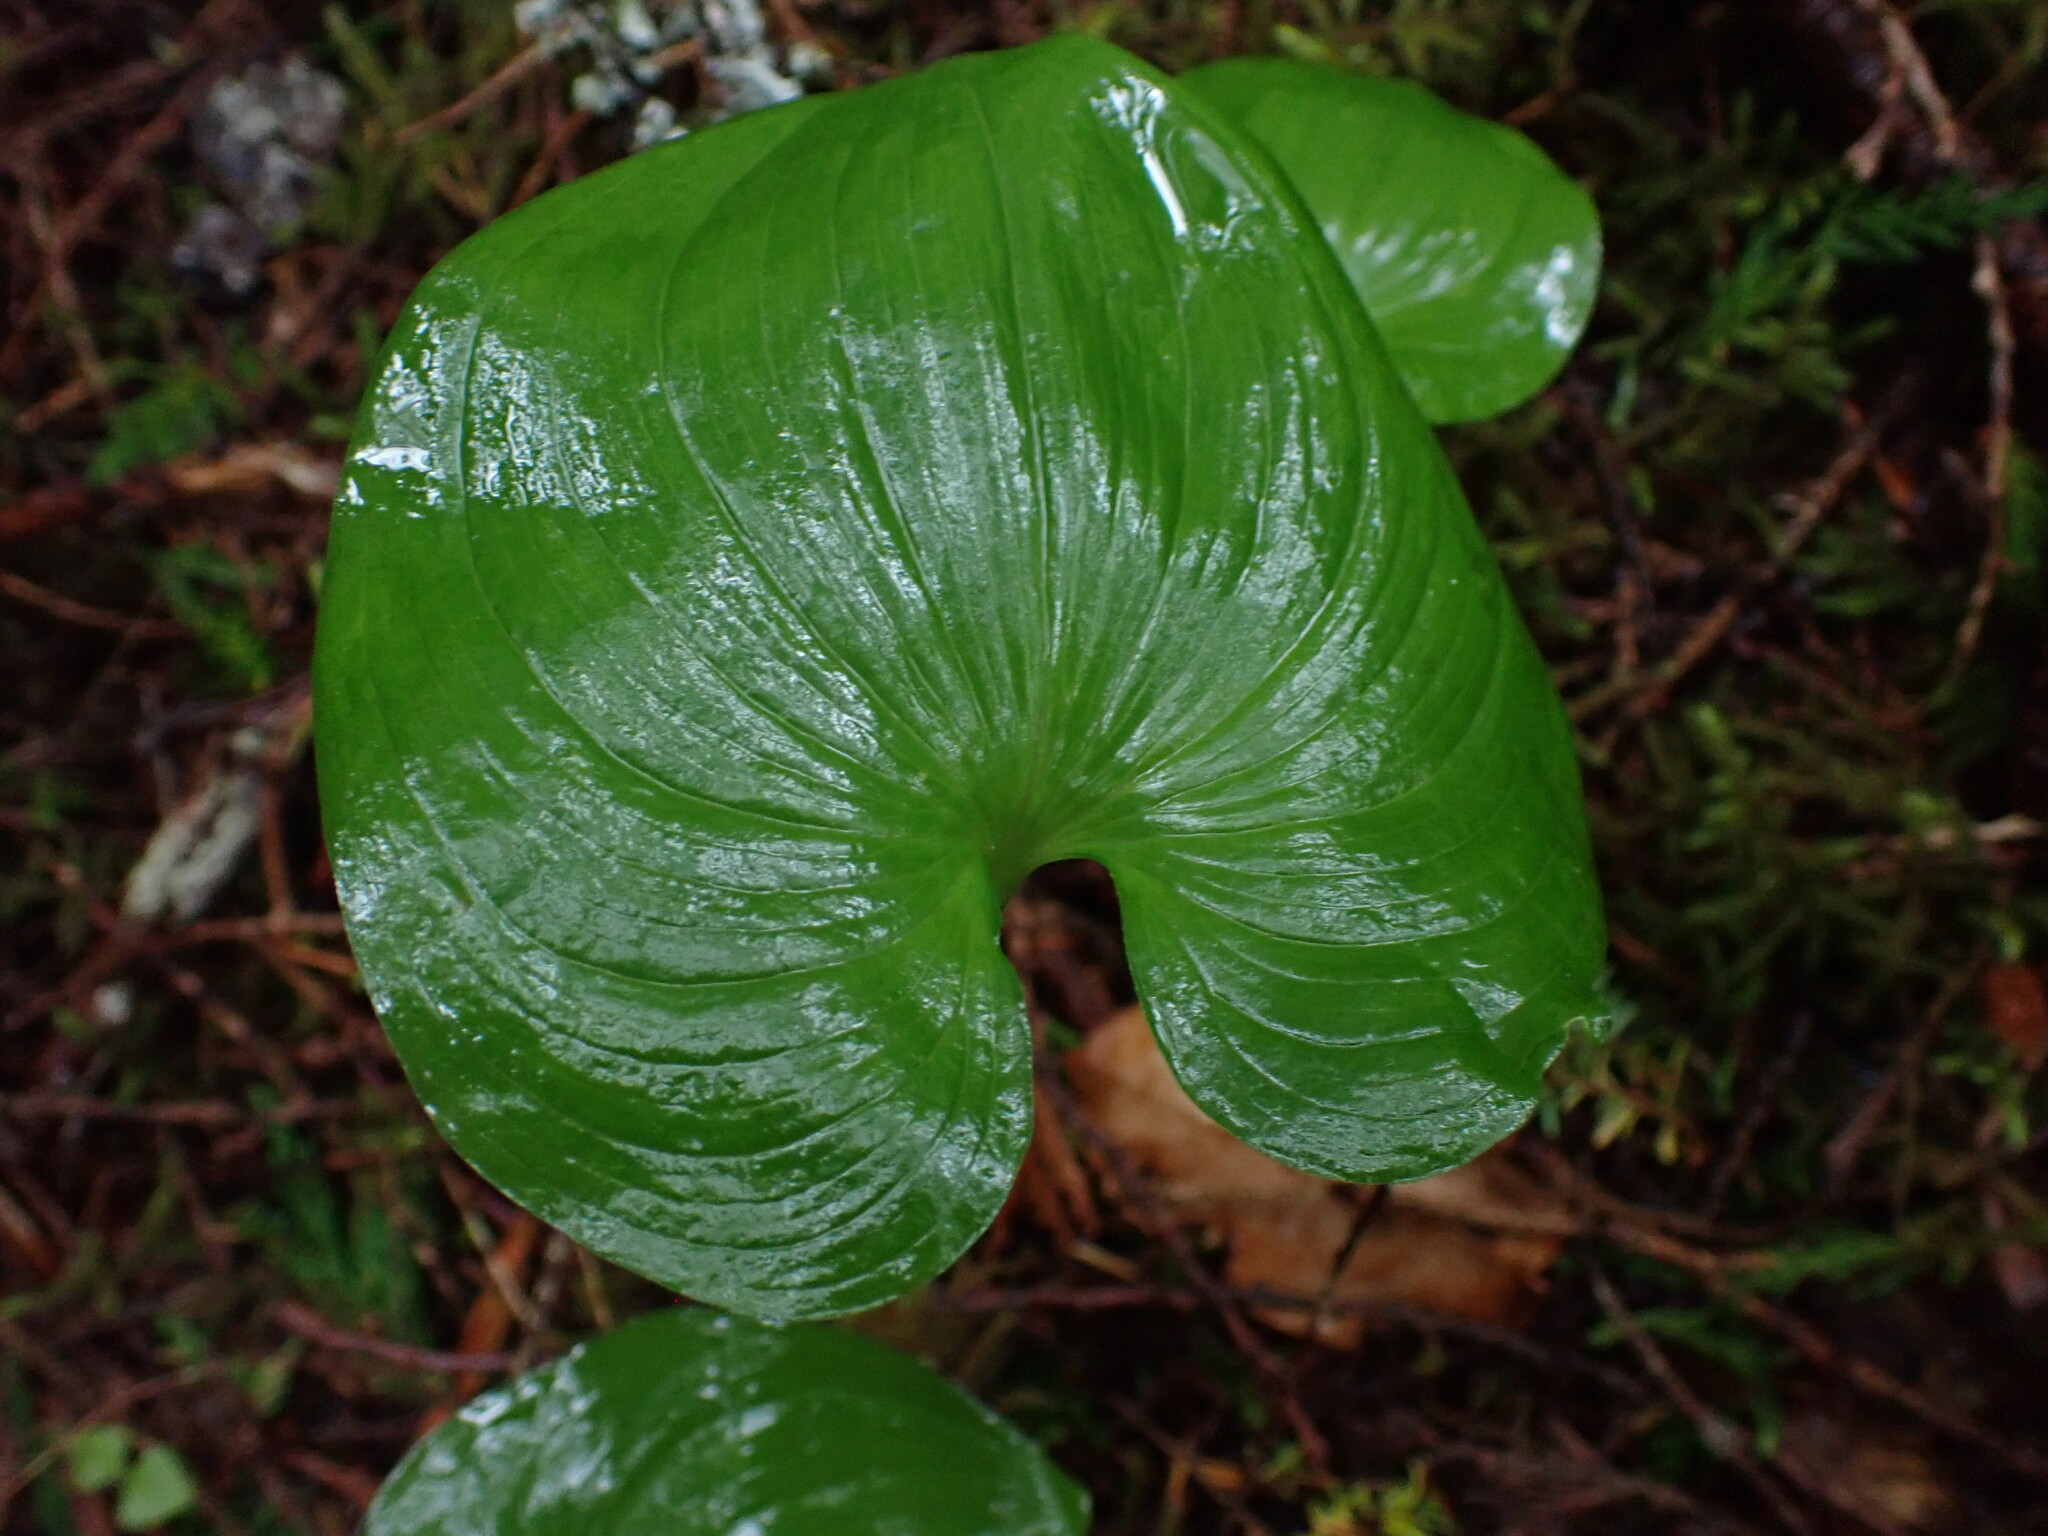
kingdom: Plantae
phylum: Tracheophyta
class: Liliopsida
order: Asparagales
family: Asparagaceae
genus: Maianthemum
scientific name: Maianthemum dilatatum
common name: False lily-of-the-valley
